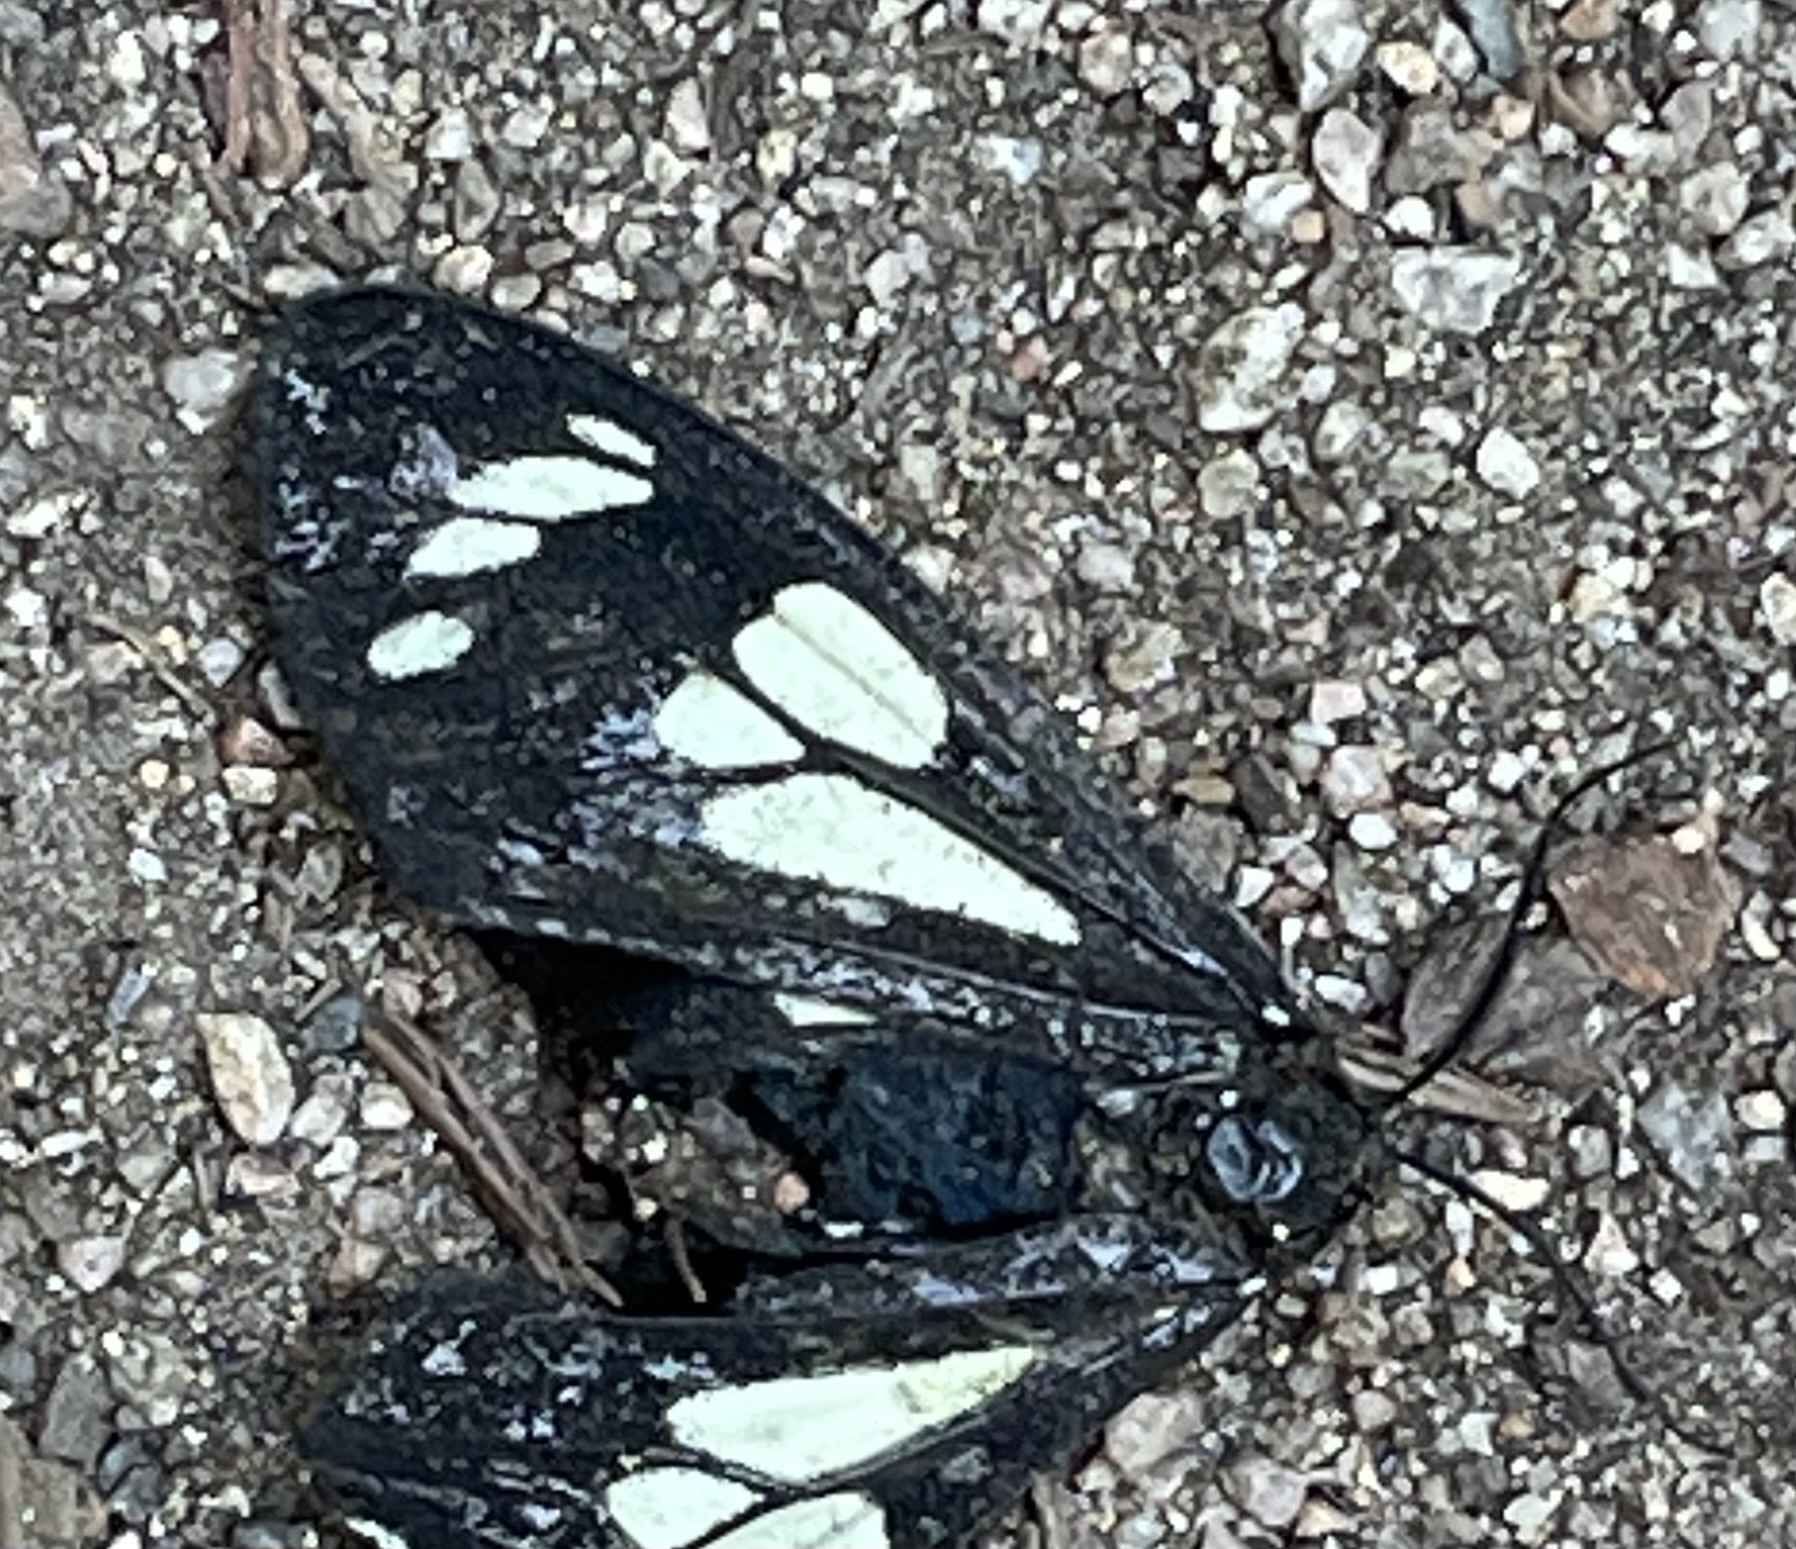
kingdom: Animalia
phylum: Arthropoda
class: Insecta
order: Lepidoptera
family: Erebidae
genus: Gnophaela
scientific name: Gnophaela latipennis
